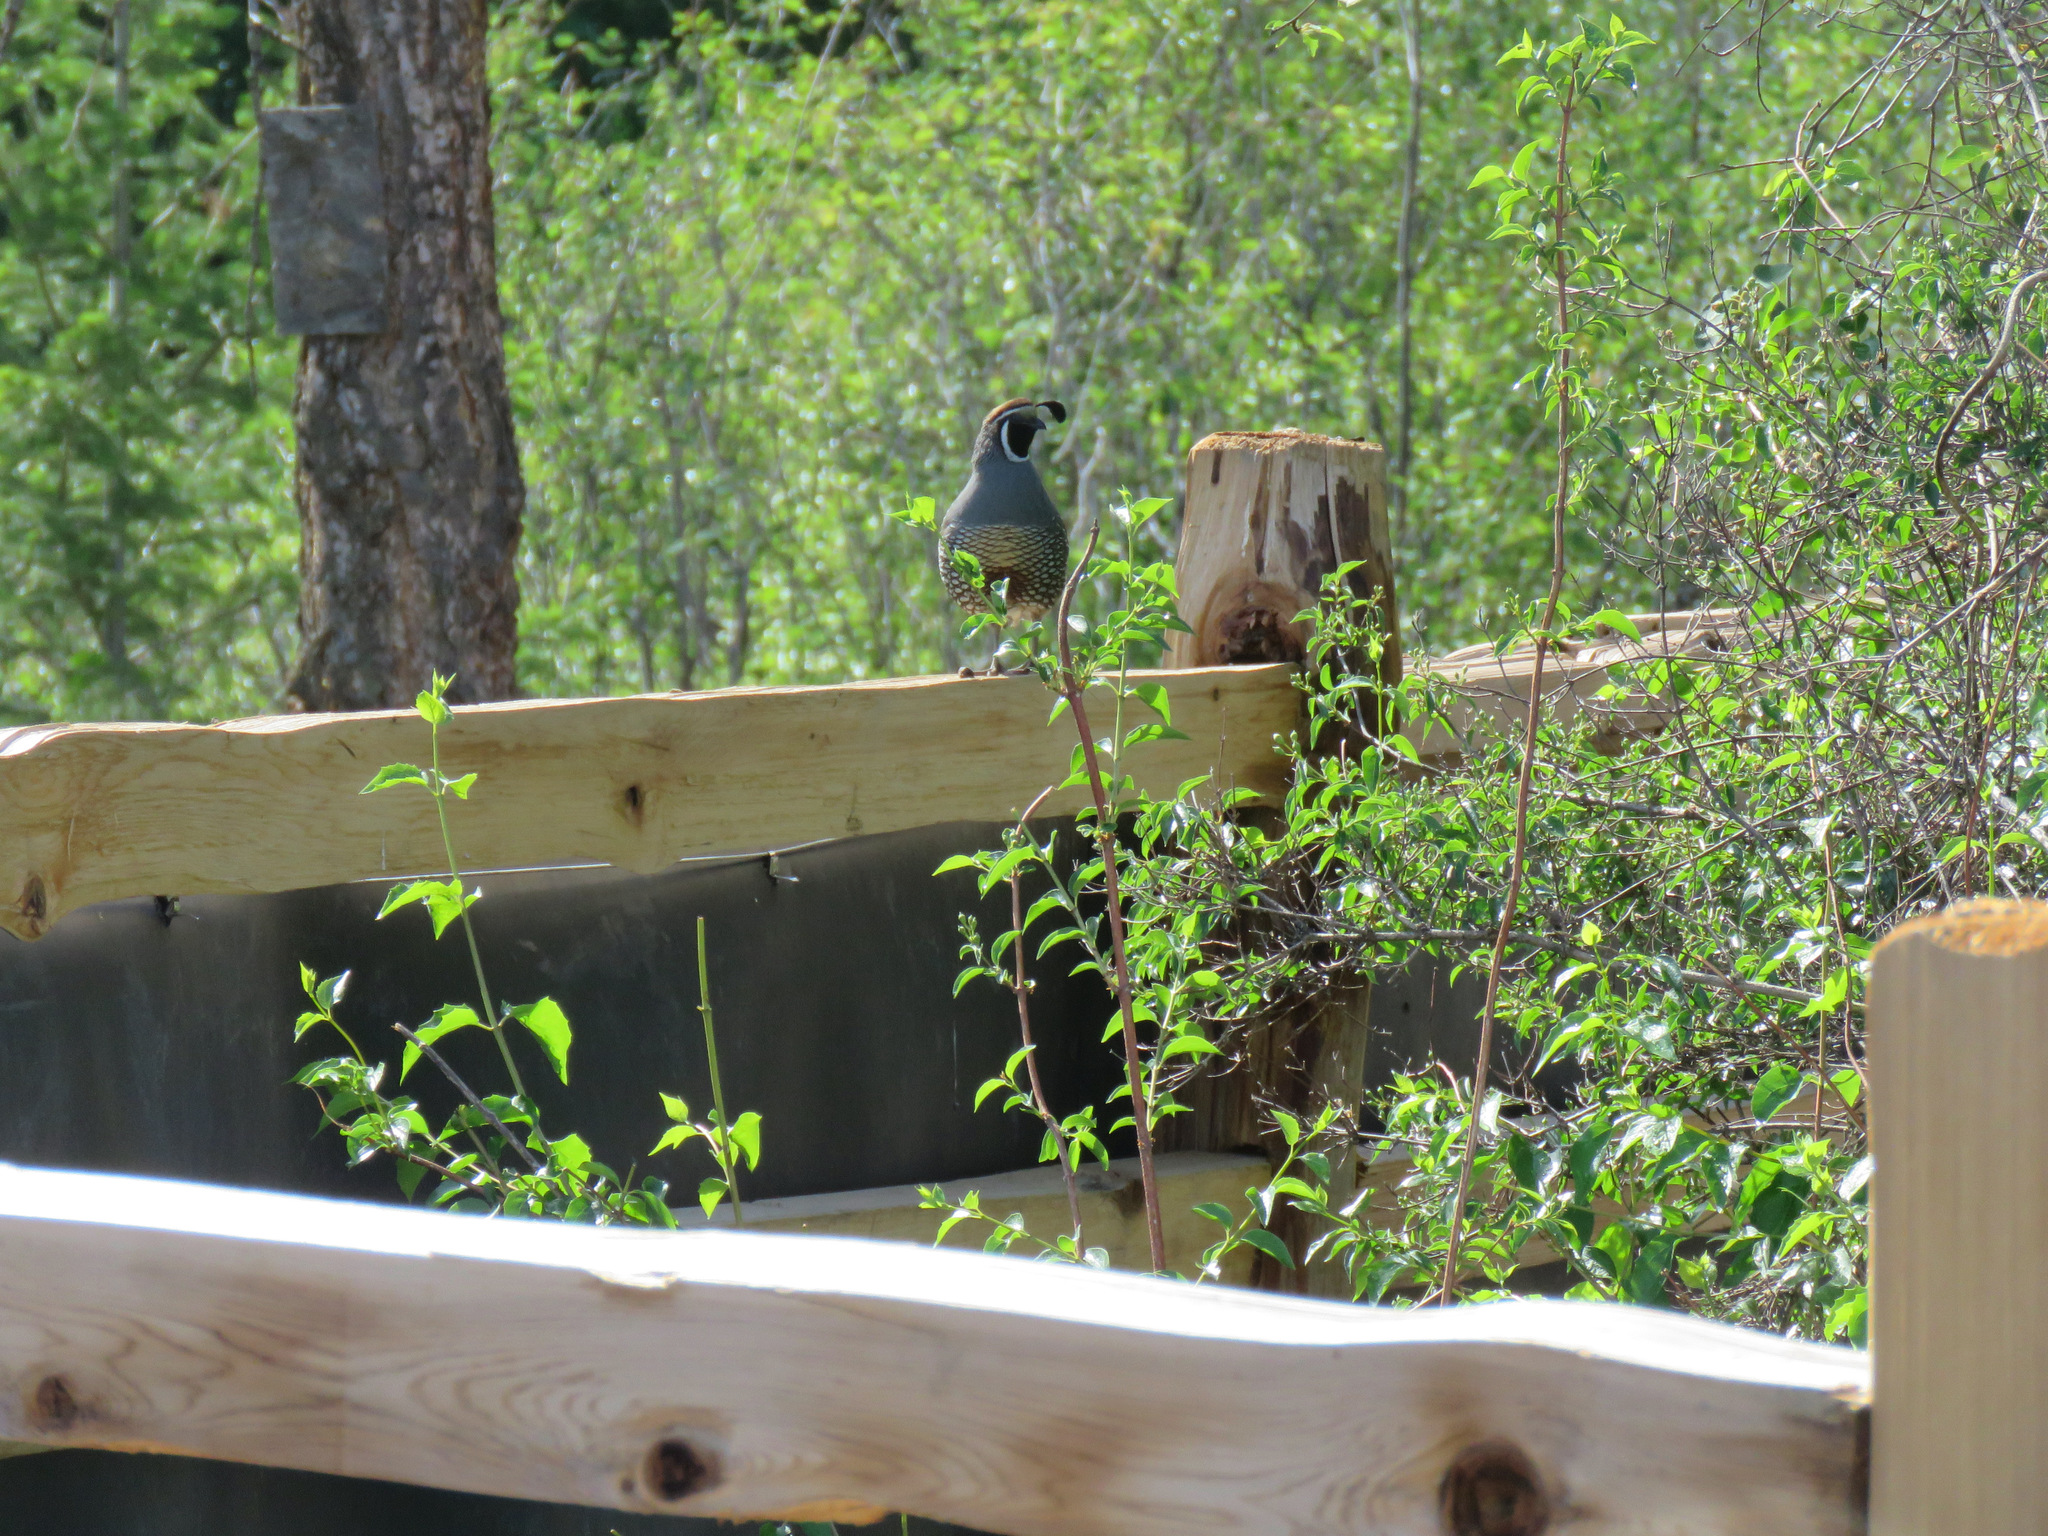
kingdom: Animalia
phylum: Chordata
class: Aves
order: Galliformes
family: Odontophoridae
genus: Callipepla
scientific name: Callipepla californica
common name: California quail
